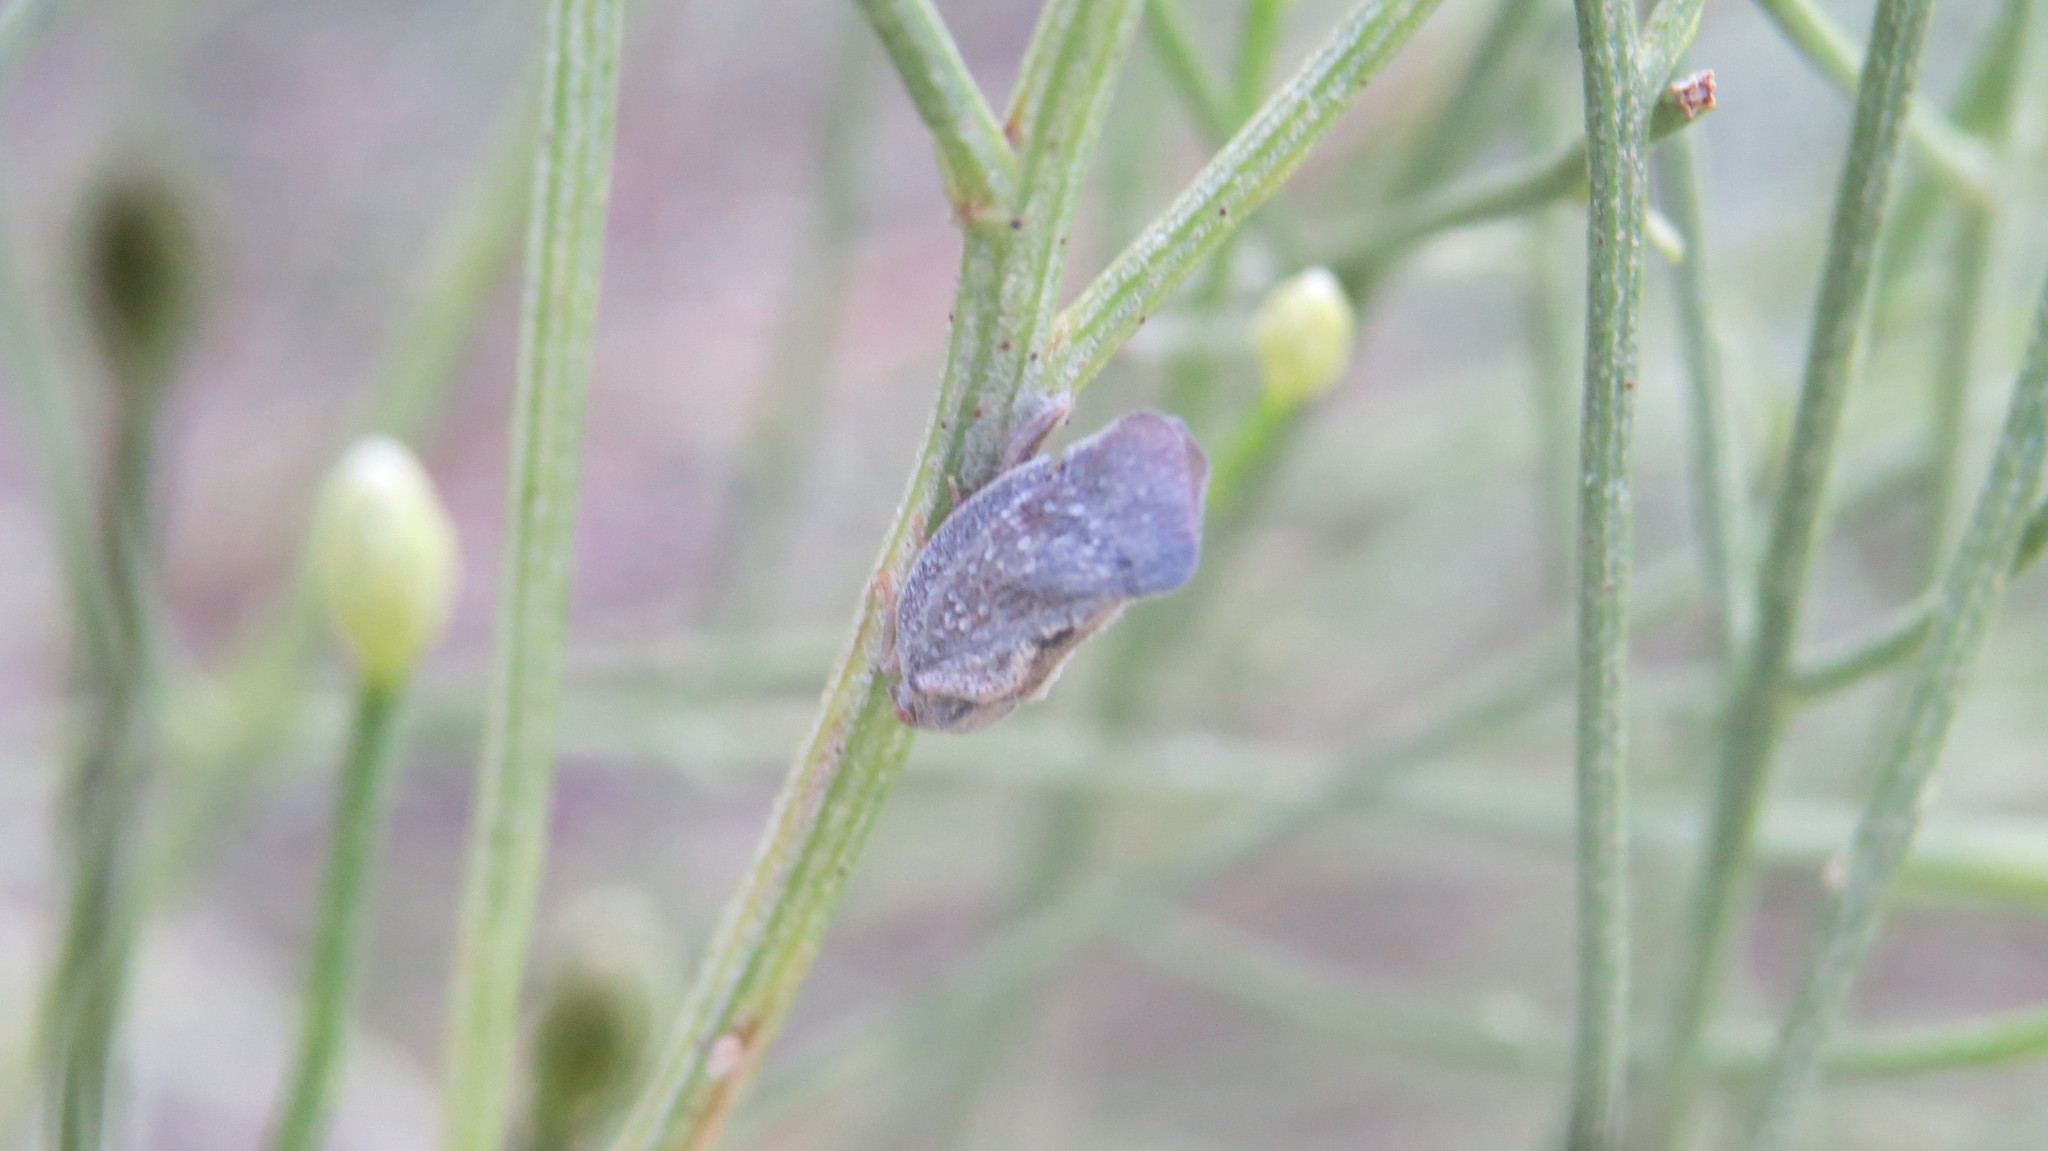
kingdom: Animalia
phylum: Arthropoda
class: Insecta
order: Hemiptera
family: Flatidae
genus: Epormenis
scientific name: Epormenis cestri
